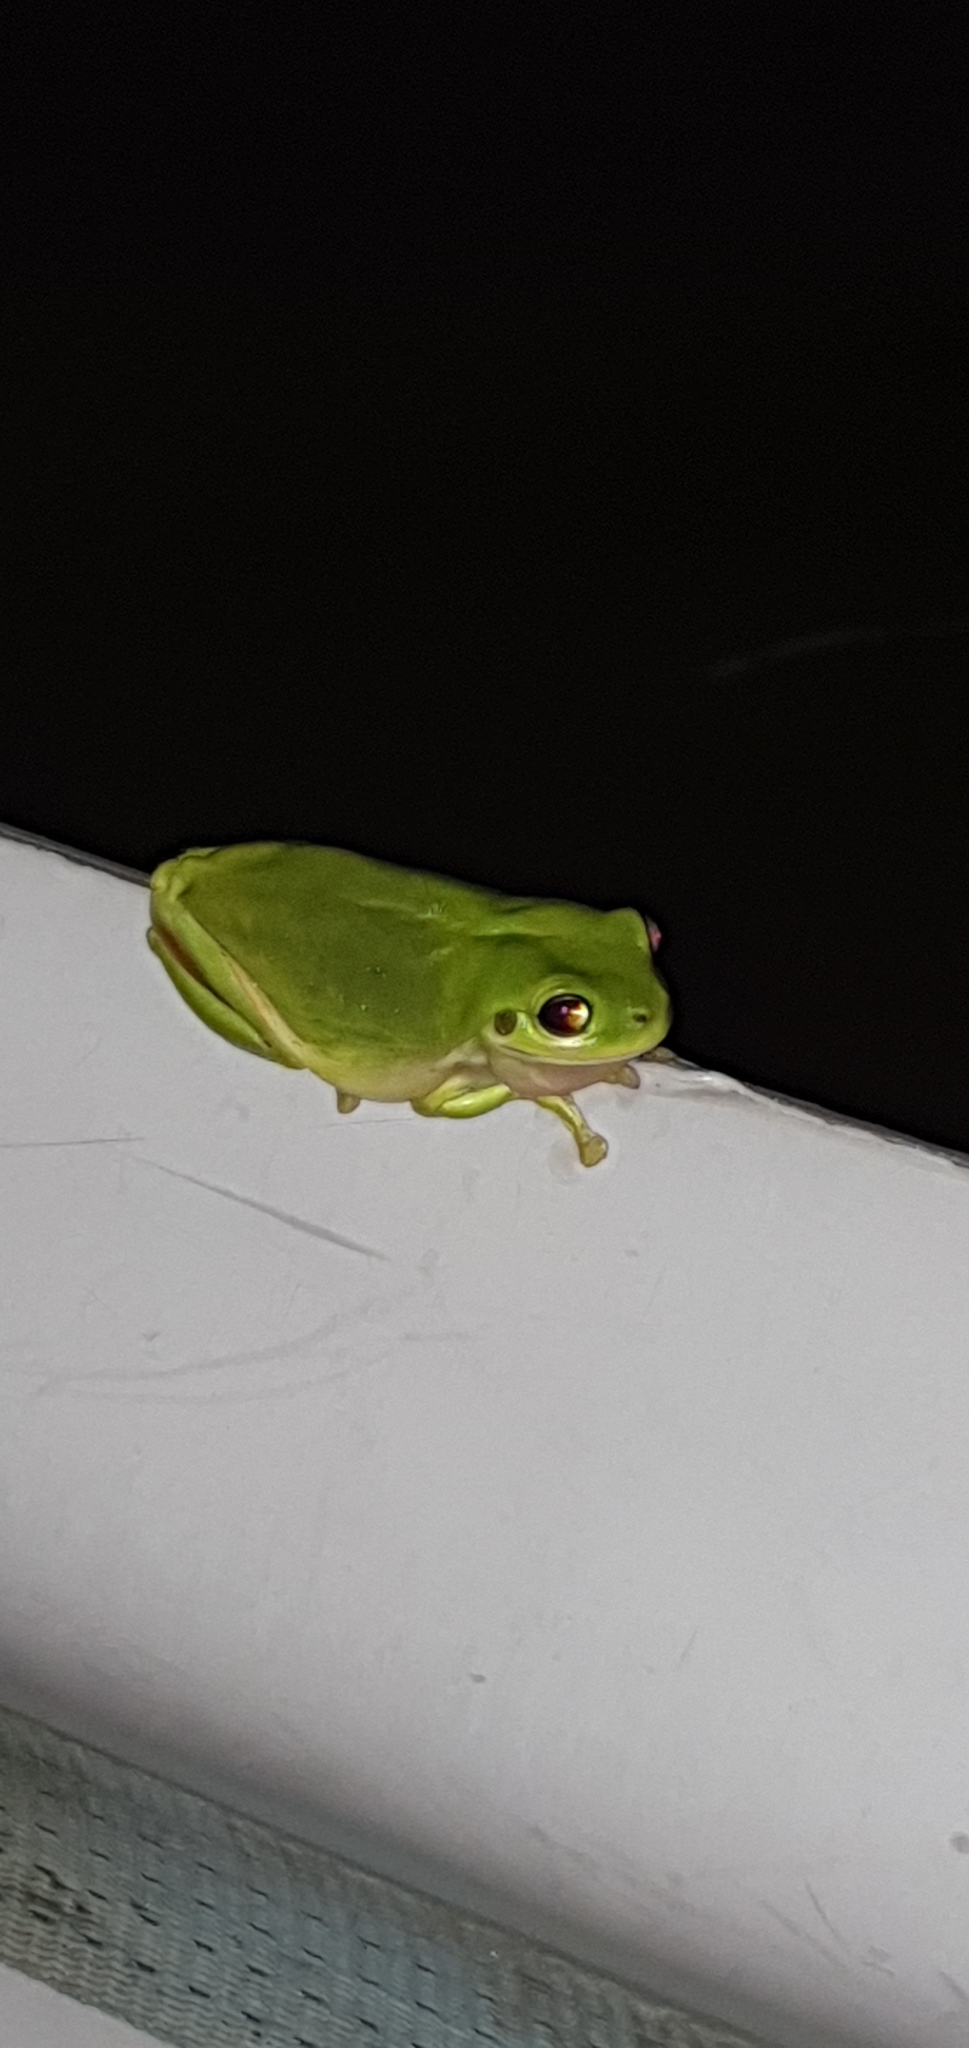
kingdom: Animalia
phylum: Chordata
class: Amphibia
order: Anura
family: Pelodryadidae
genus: Ranoidea
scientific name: Ranoidea caerulea
